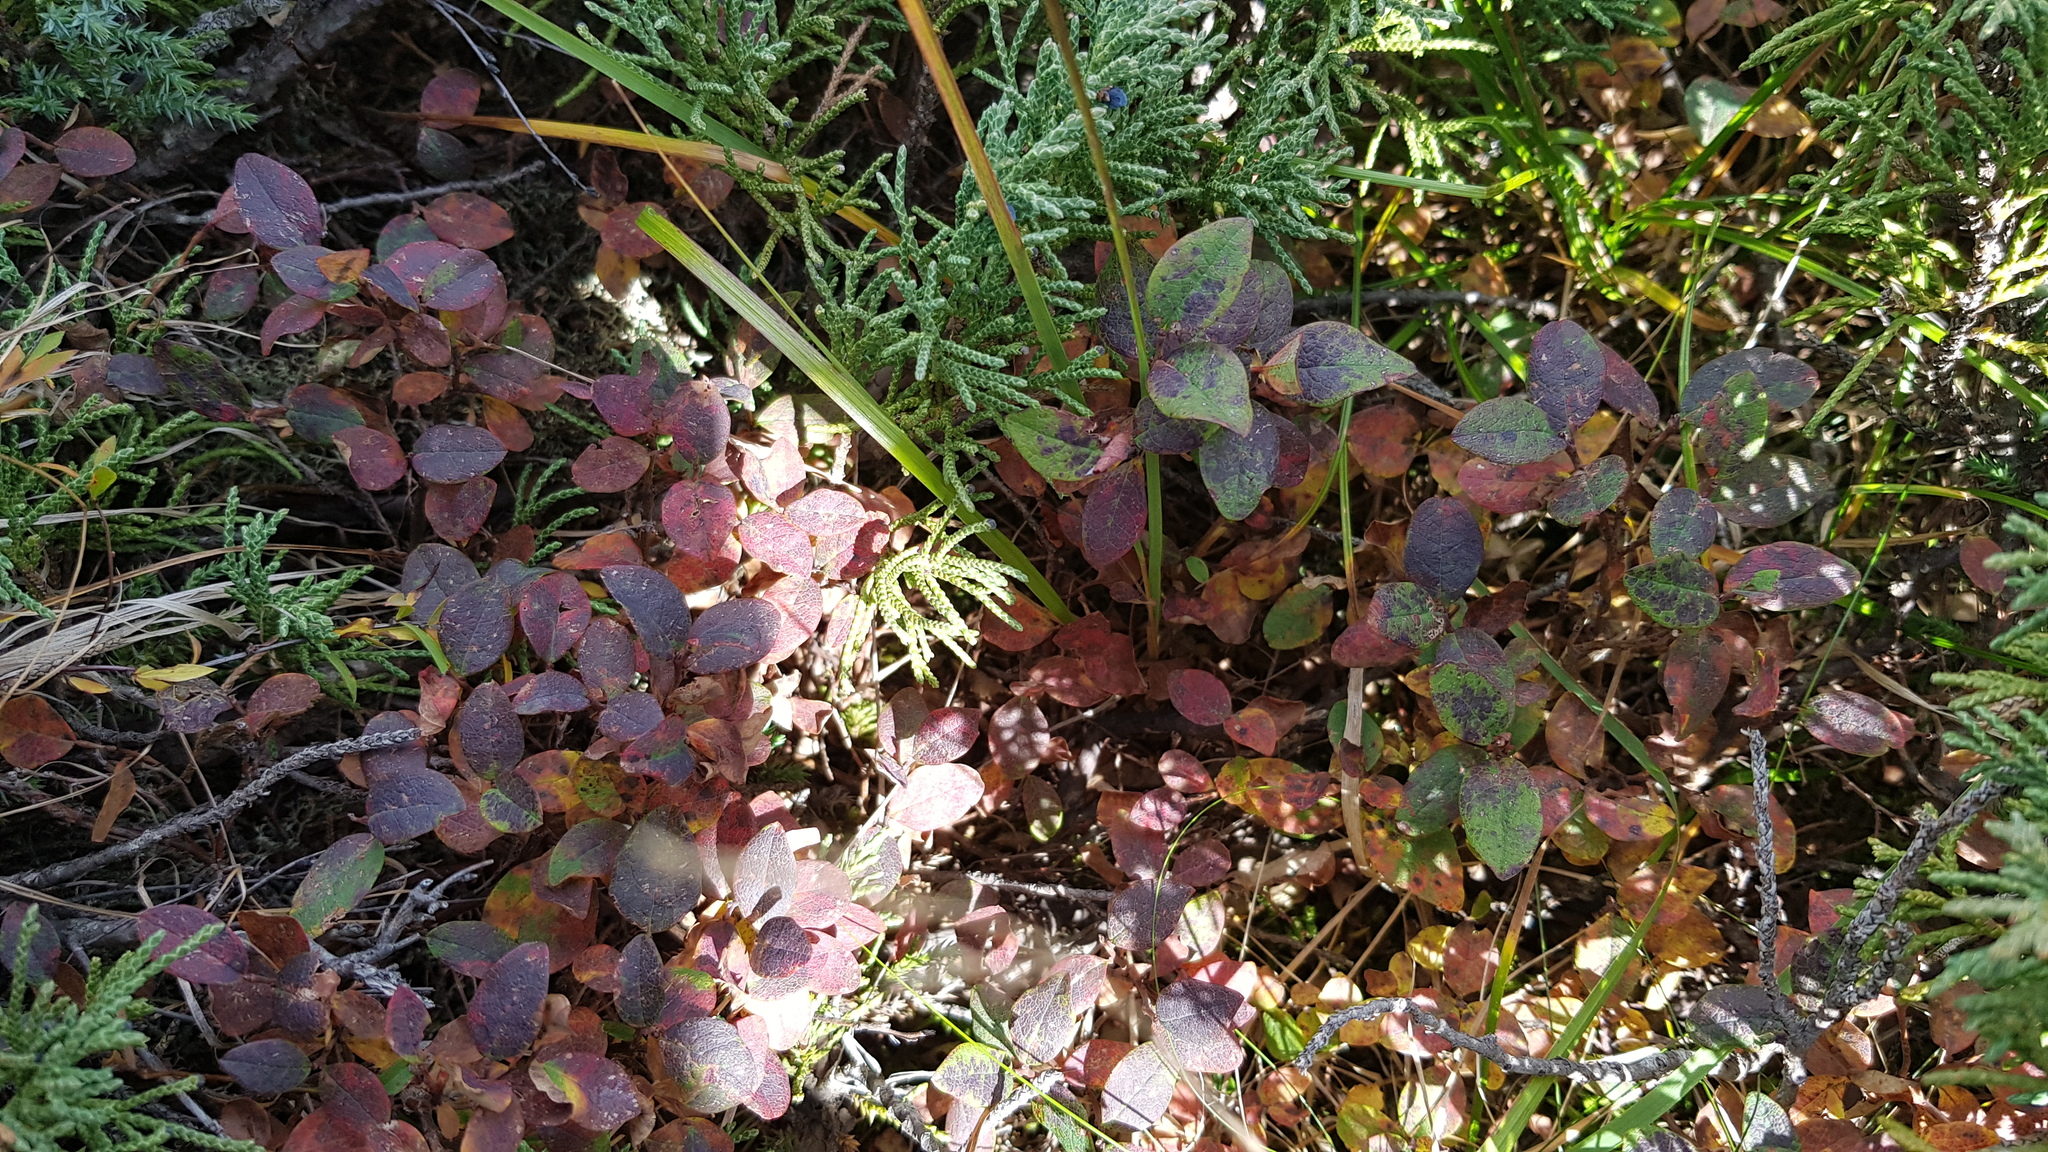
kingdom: Plantae
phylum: Tracheophyta
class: Magnoliopsida
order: Ericales
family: Ericaceae
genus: Vaccinium
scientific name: Vaccinium uliginosum
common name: Bog bilberry
